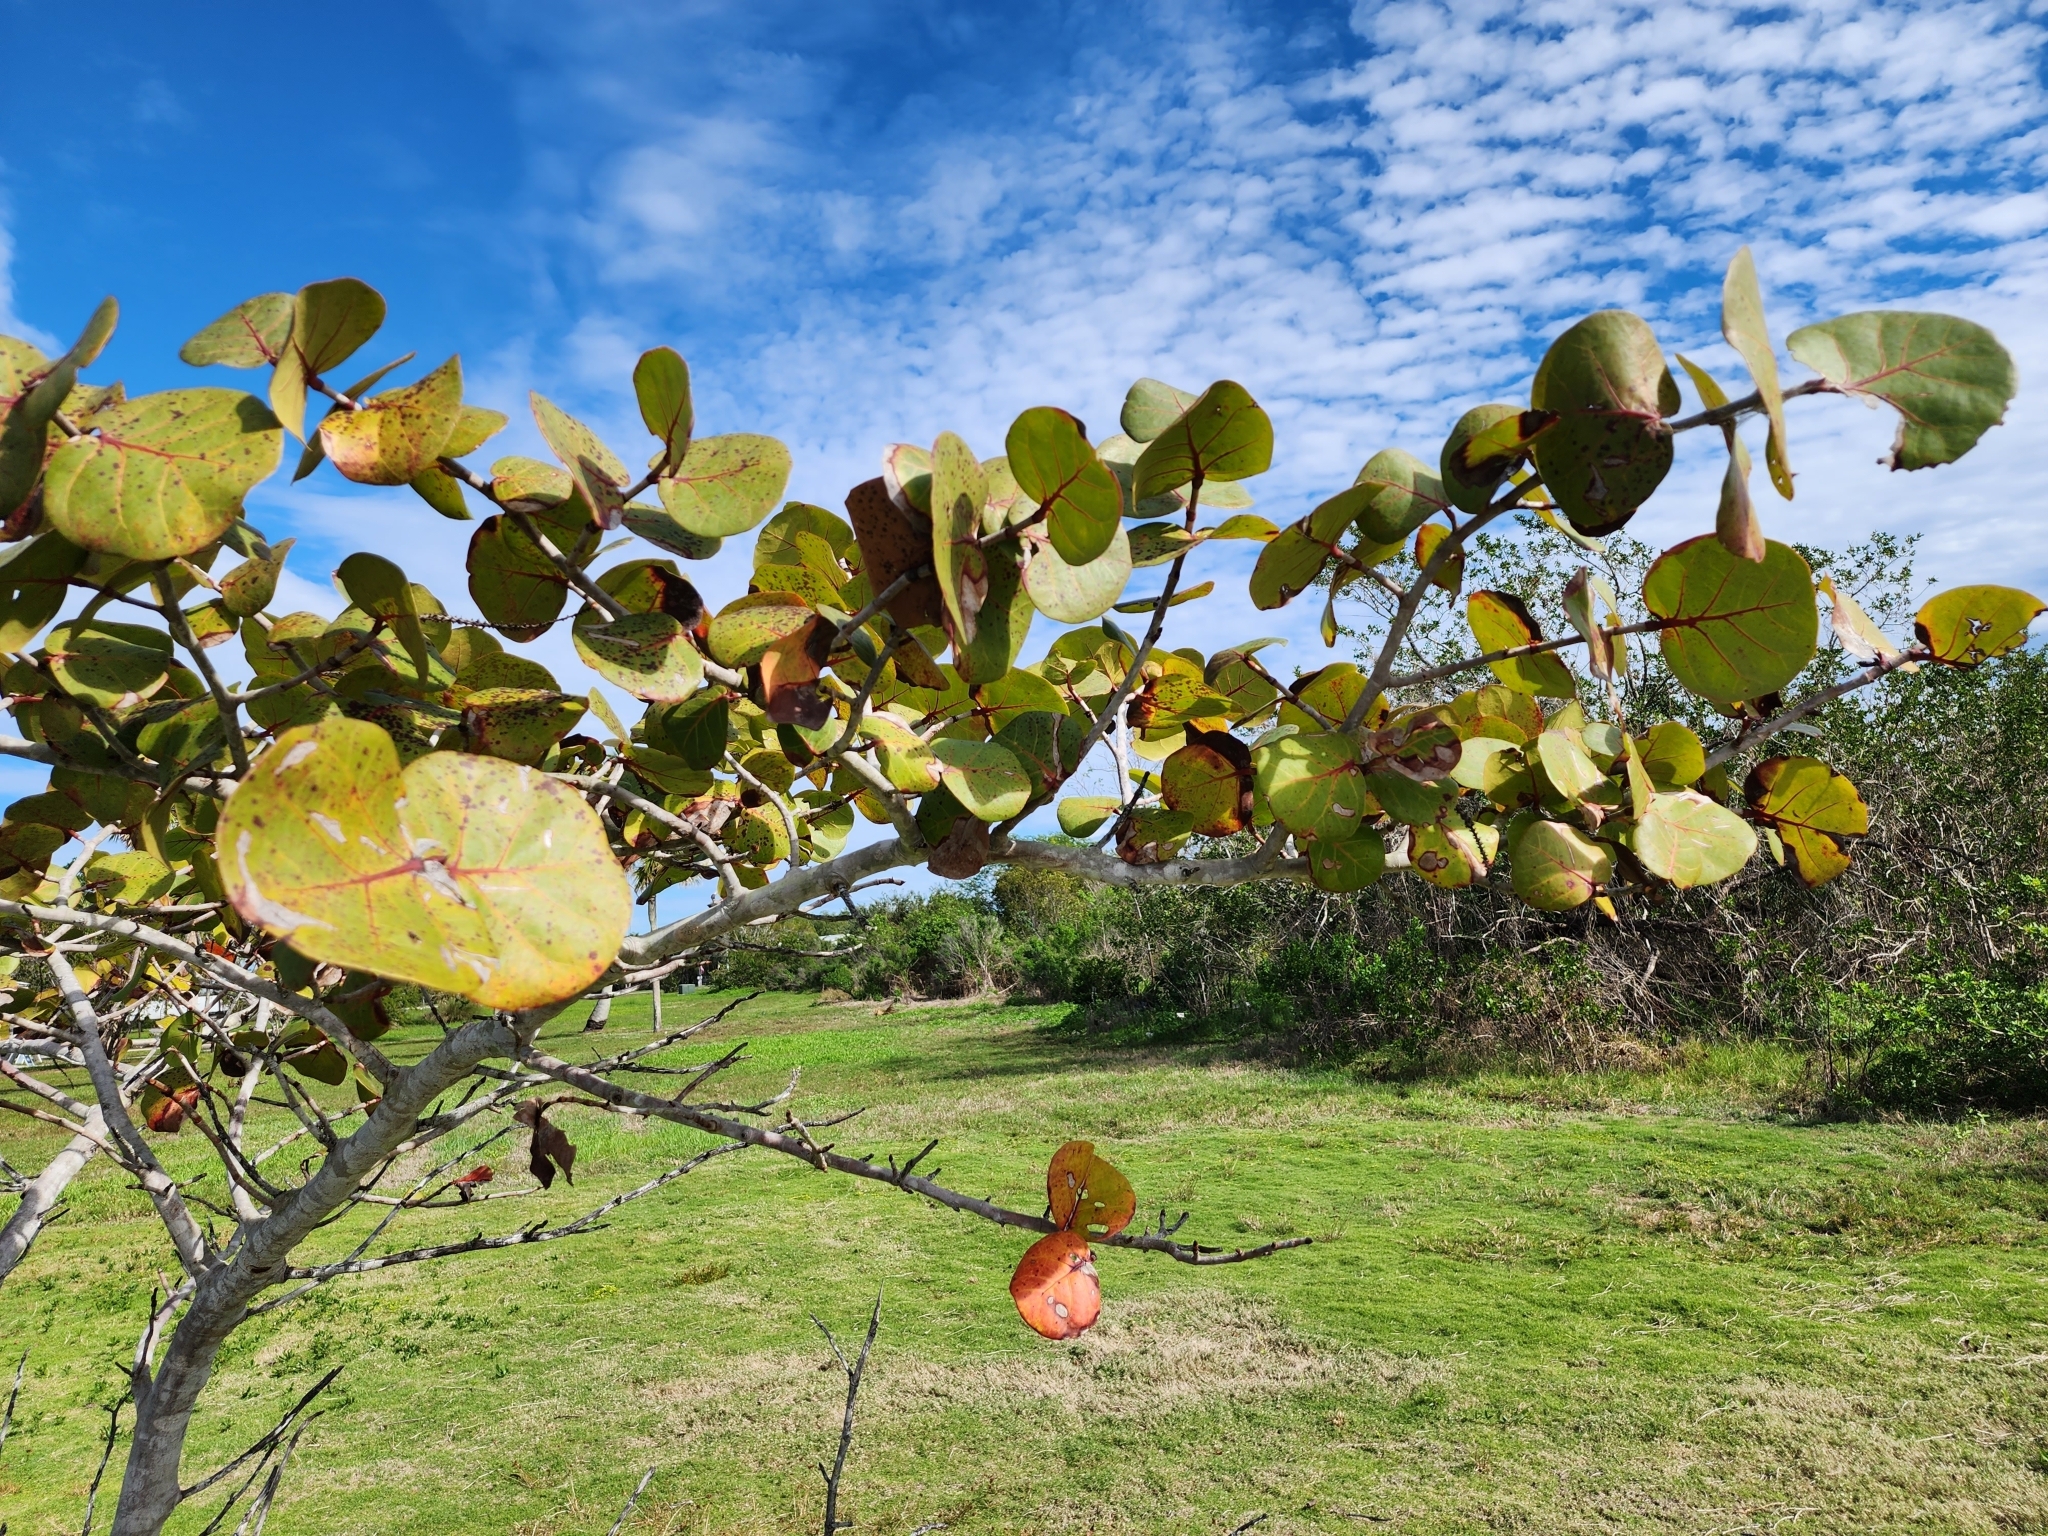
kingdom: Plantae
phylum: Tracheophyta
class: Magnoliopsida
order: Caryophyllales
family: Polygonaceae
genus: Coccoloba
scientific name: Coccoloba uvifera
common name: Seagrape
